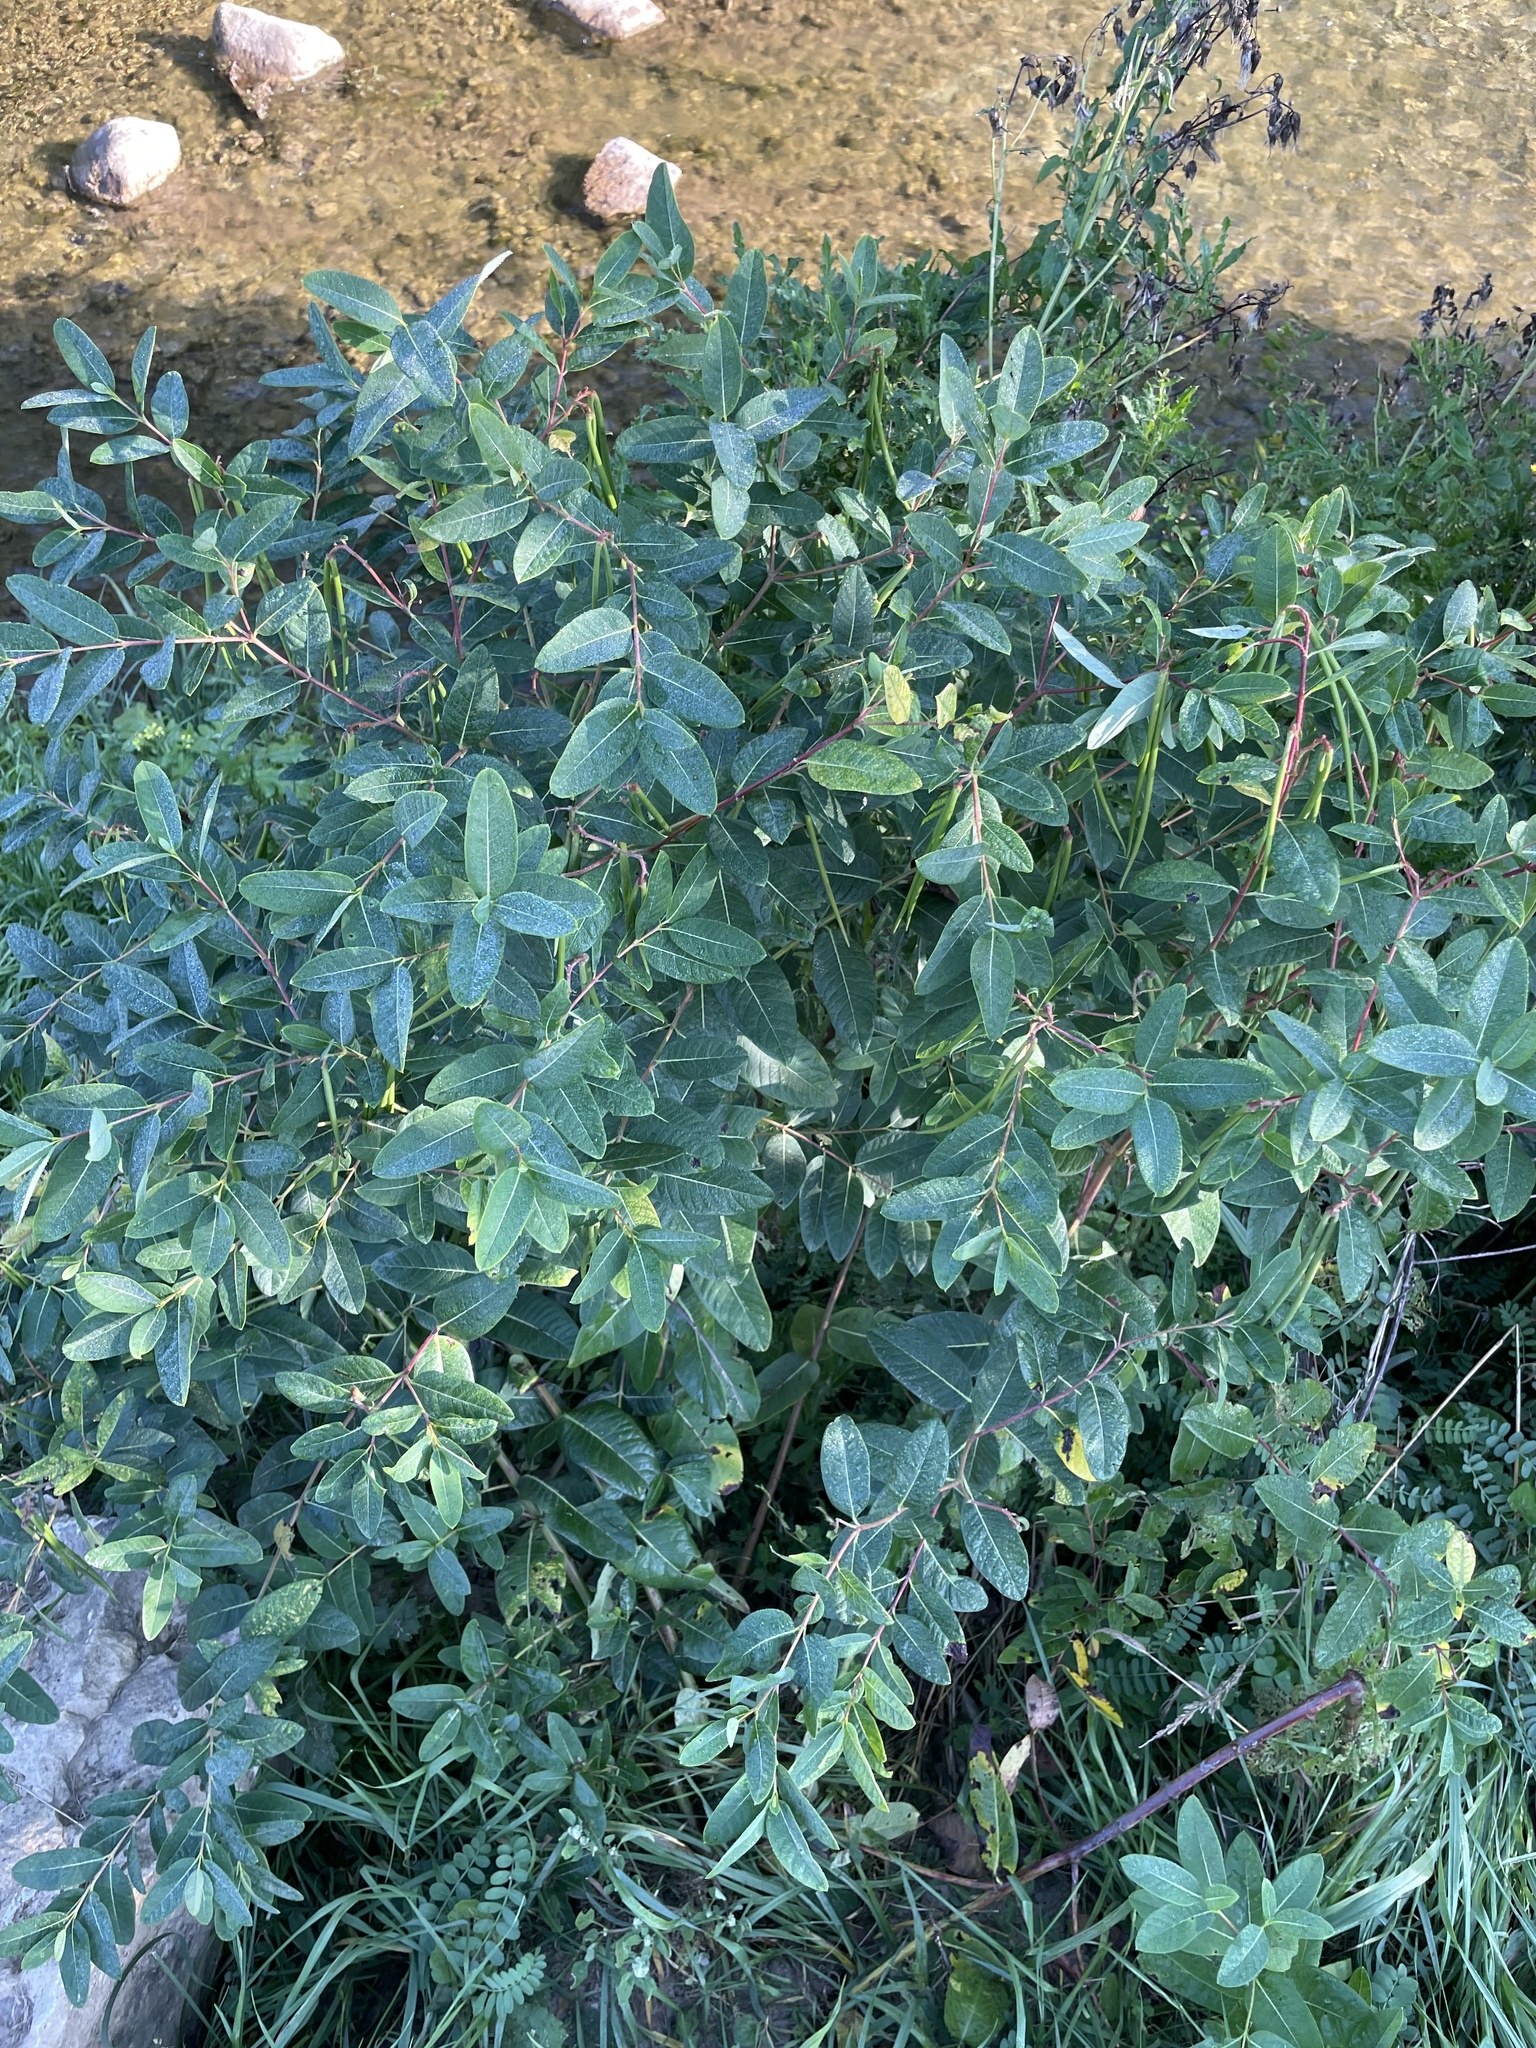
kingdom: Plantae
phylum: Tracheophyta
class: Magnoliopsida
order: Gentianales
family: Apocynaceae
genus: Apocynum
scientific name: Apocynum cannabinum
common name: Hemp dogbane
